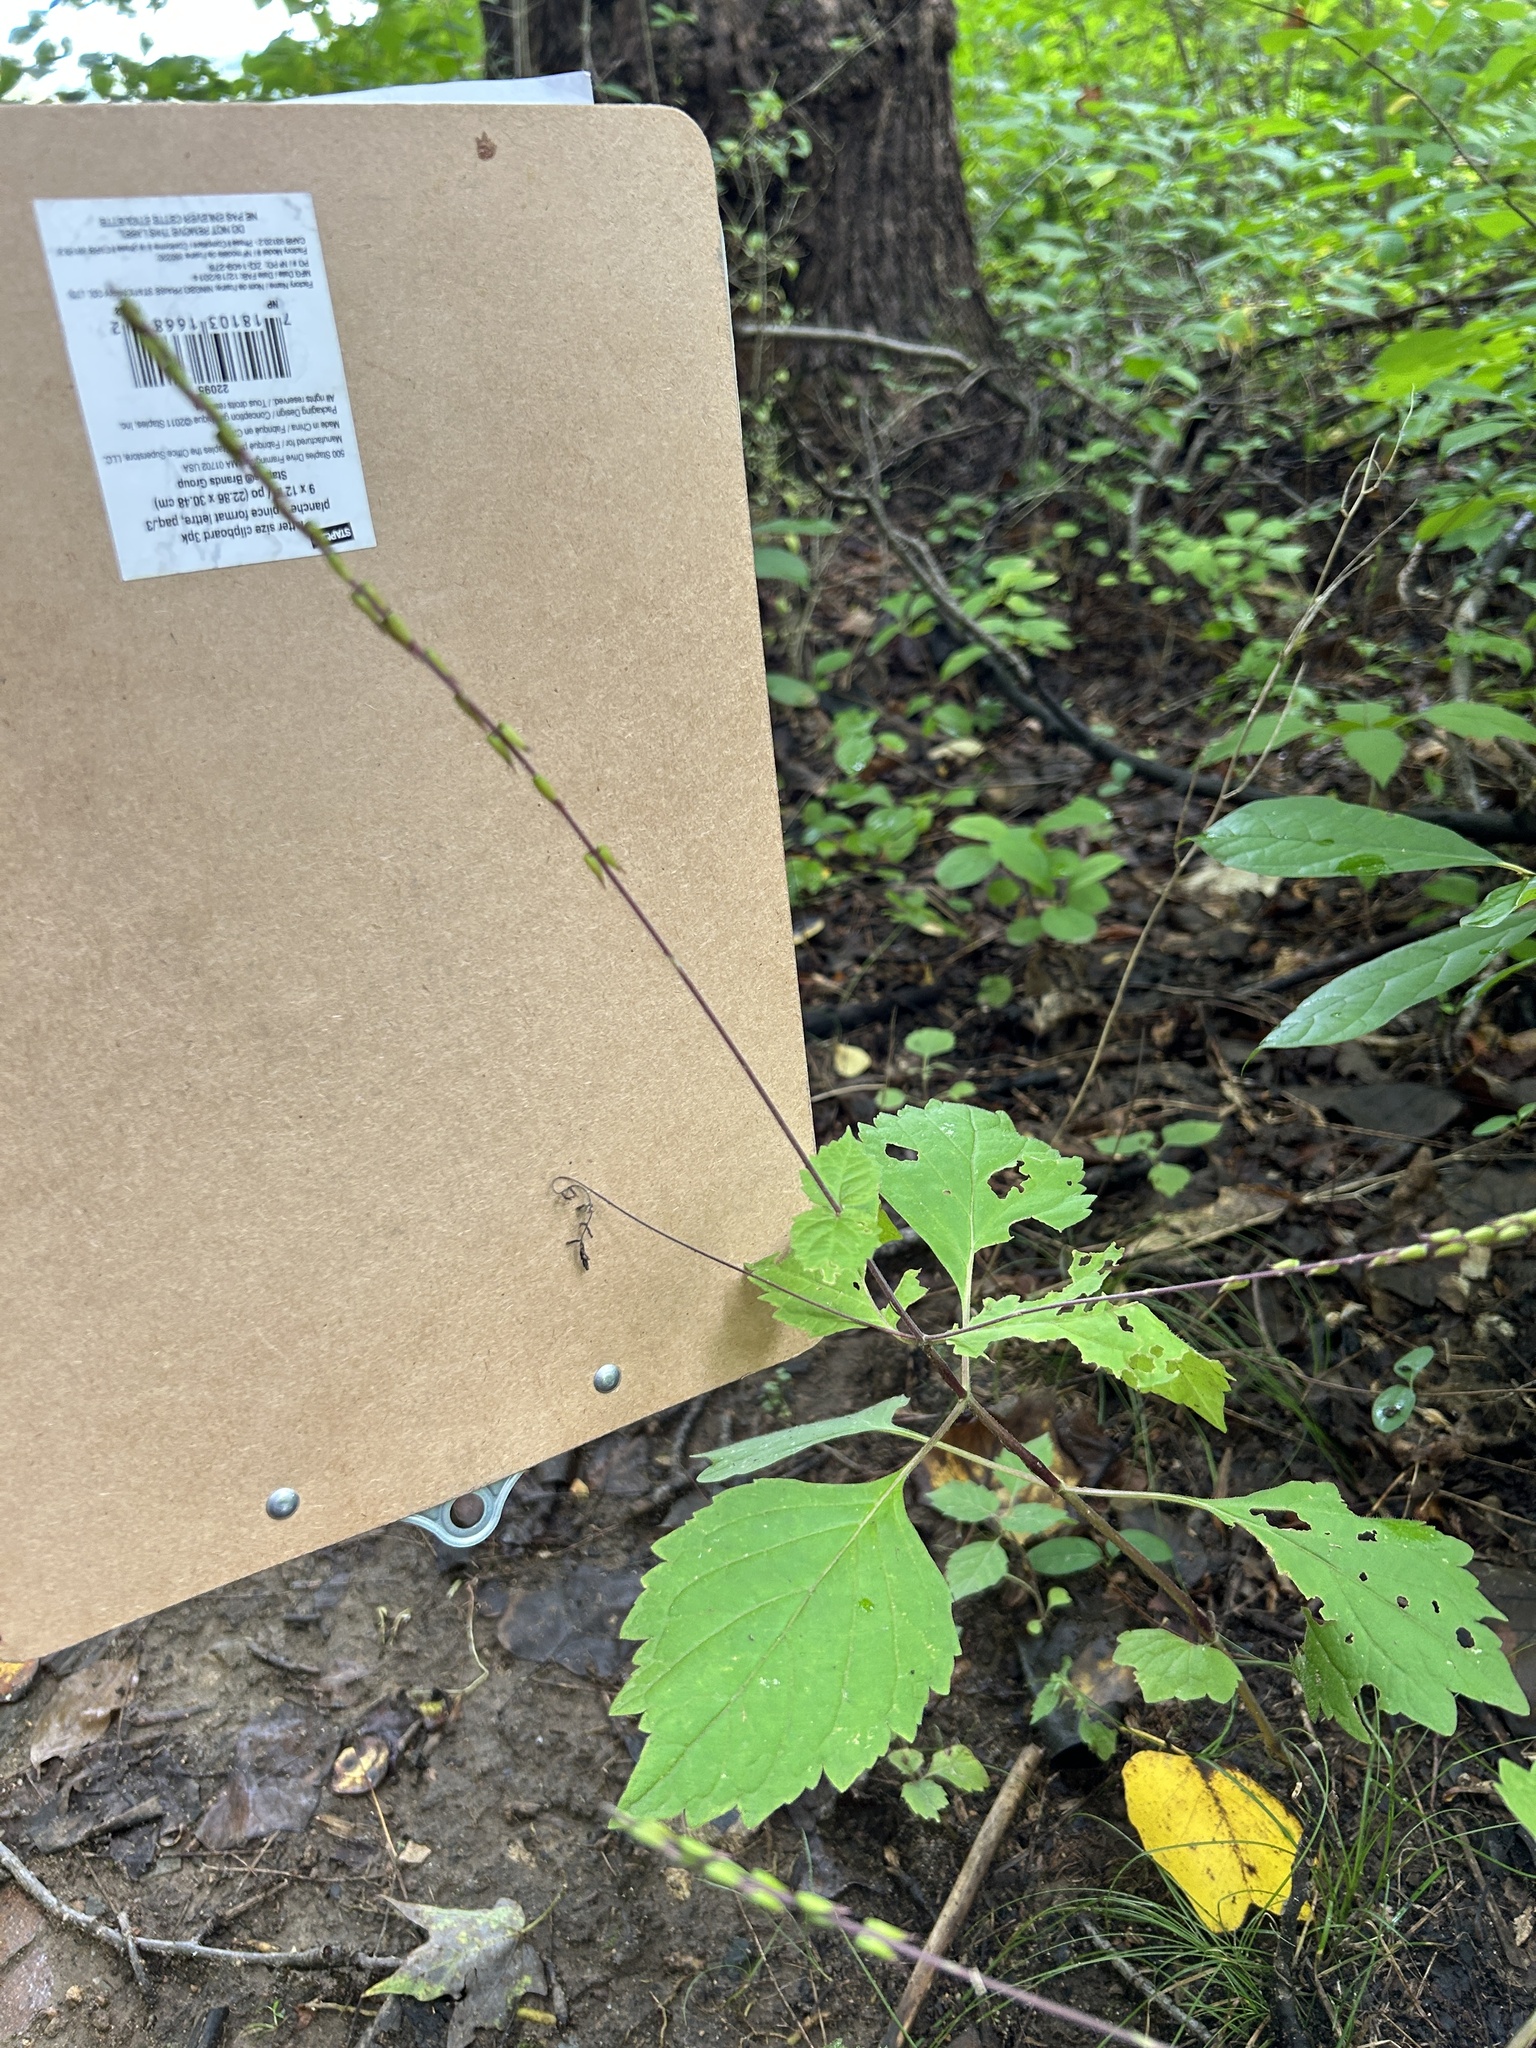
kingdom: Plantae
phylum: Tracheophyta
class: Magnoliopsida
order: Lamiales
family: Phrymaceae
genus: Phryma
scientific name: Phryma leptostachya
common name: American lopseed
